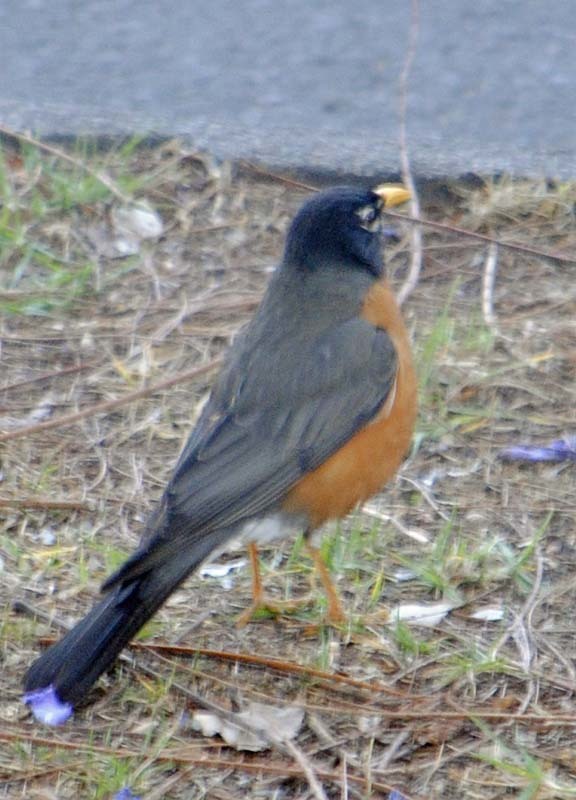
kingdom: Animalia
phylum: Chordata
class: Aves
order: Passeriformes
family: Turdidae
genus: Turdus
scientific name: Turdus migratorius
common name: American robin
